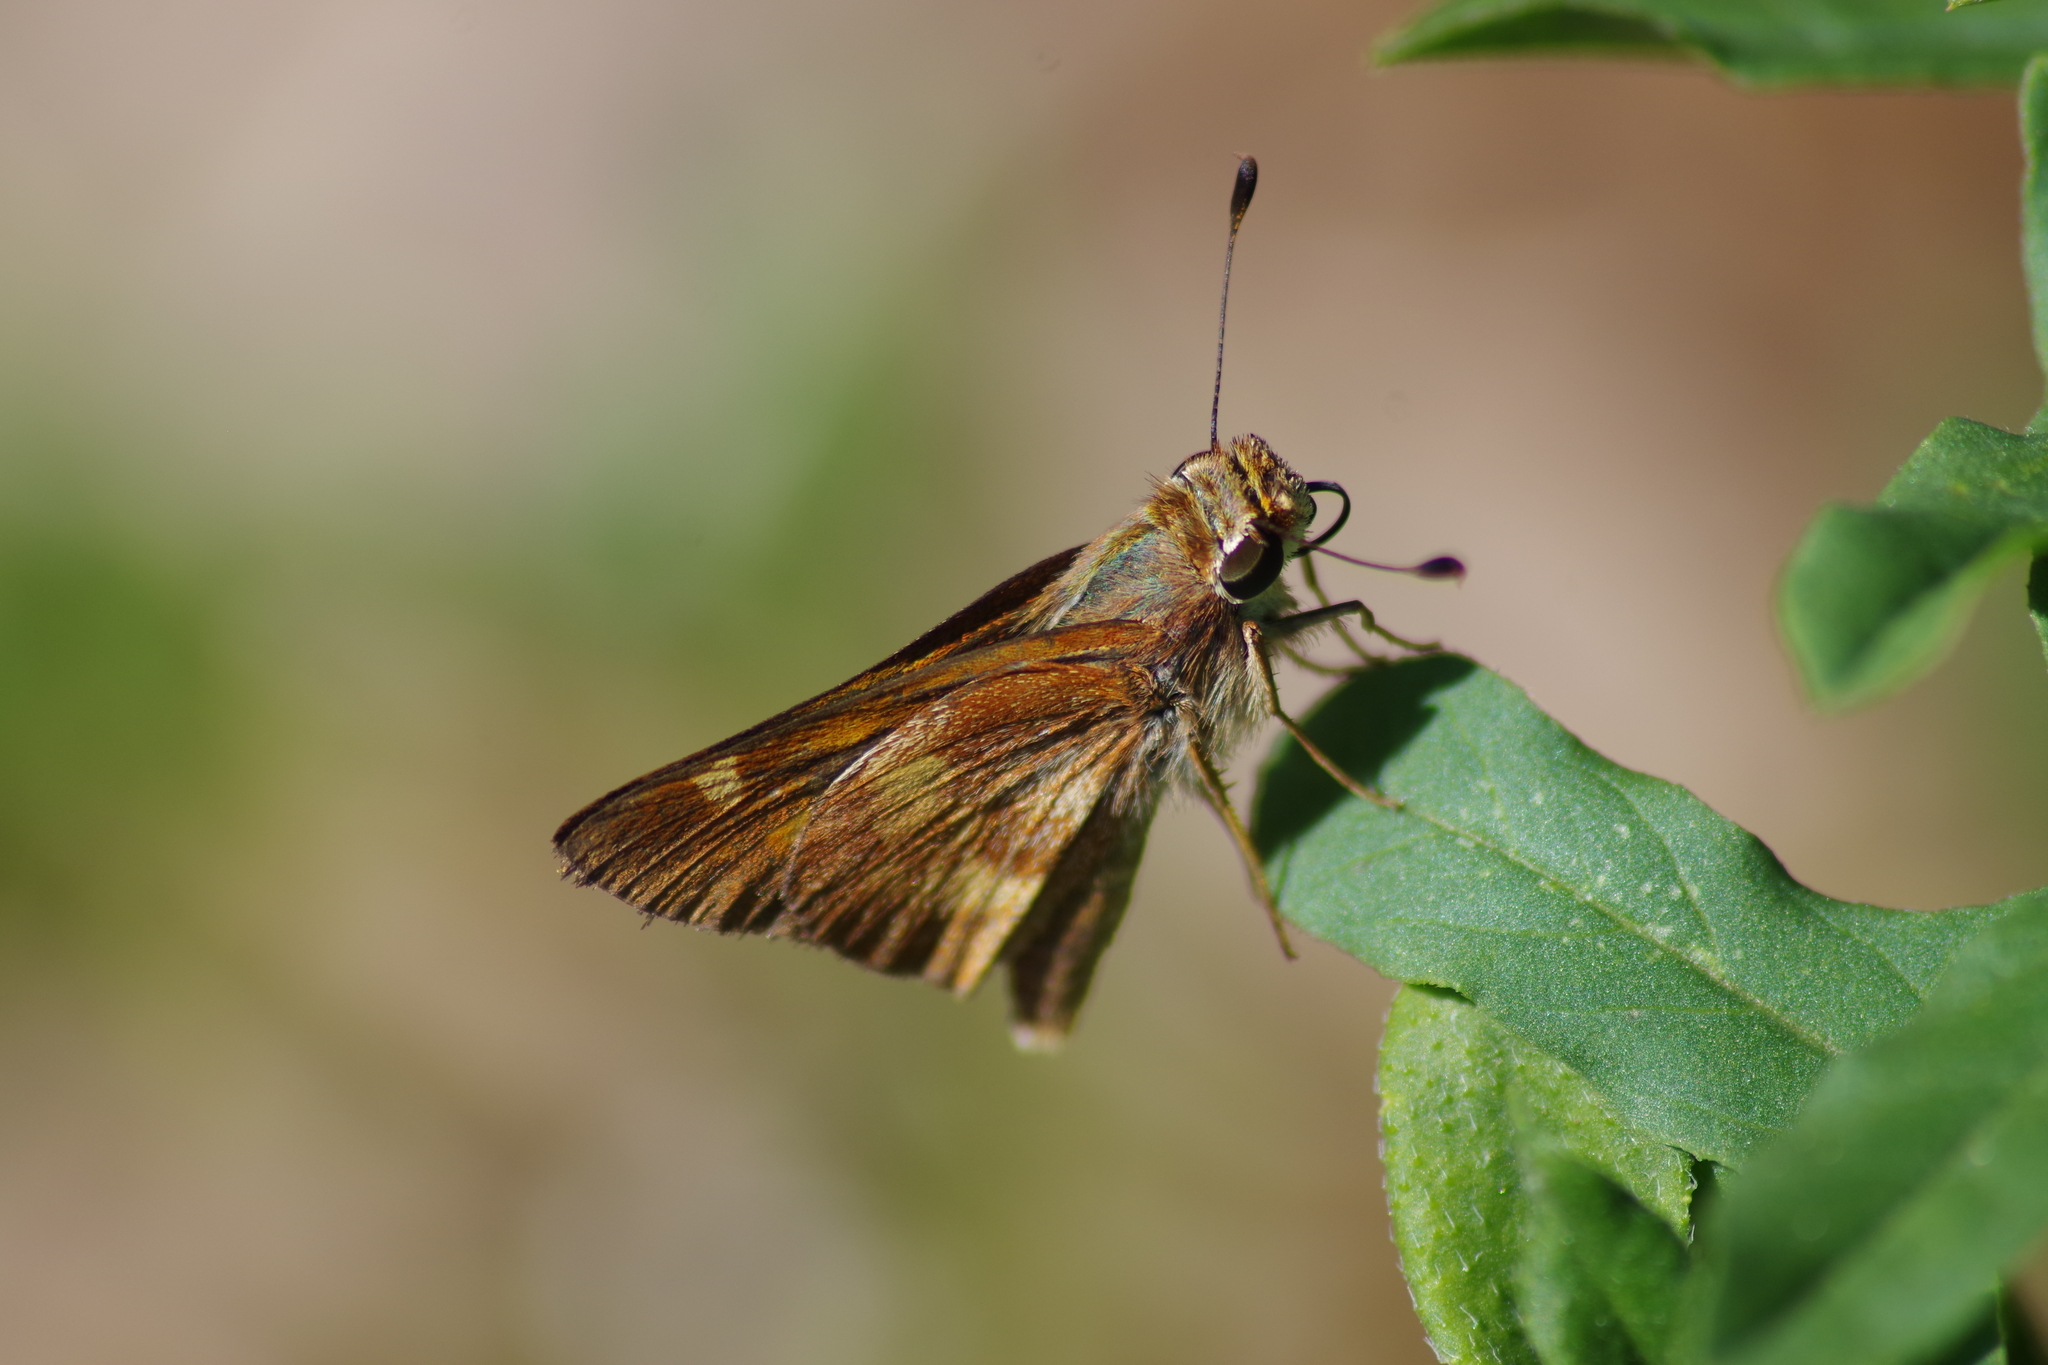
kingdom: Animalia
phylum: Arthropoda
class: Insecta
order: Lepidoptera
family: Hesperiidae
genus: Lon
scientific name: Lon melane
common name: Umber skipper
